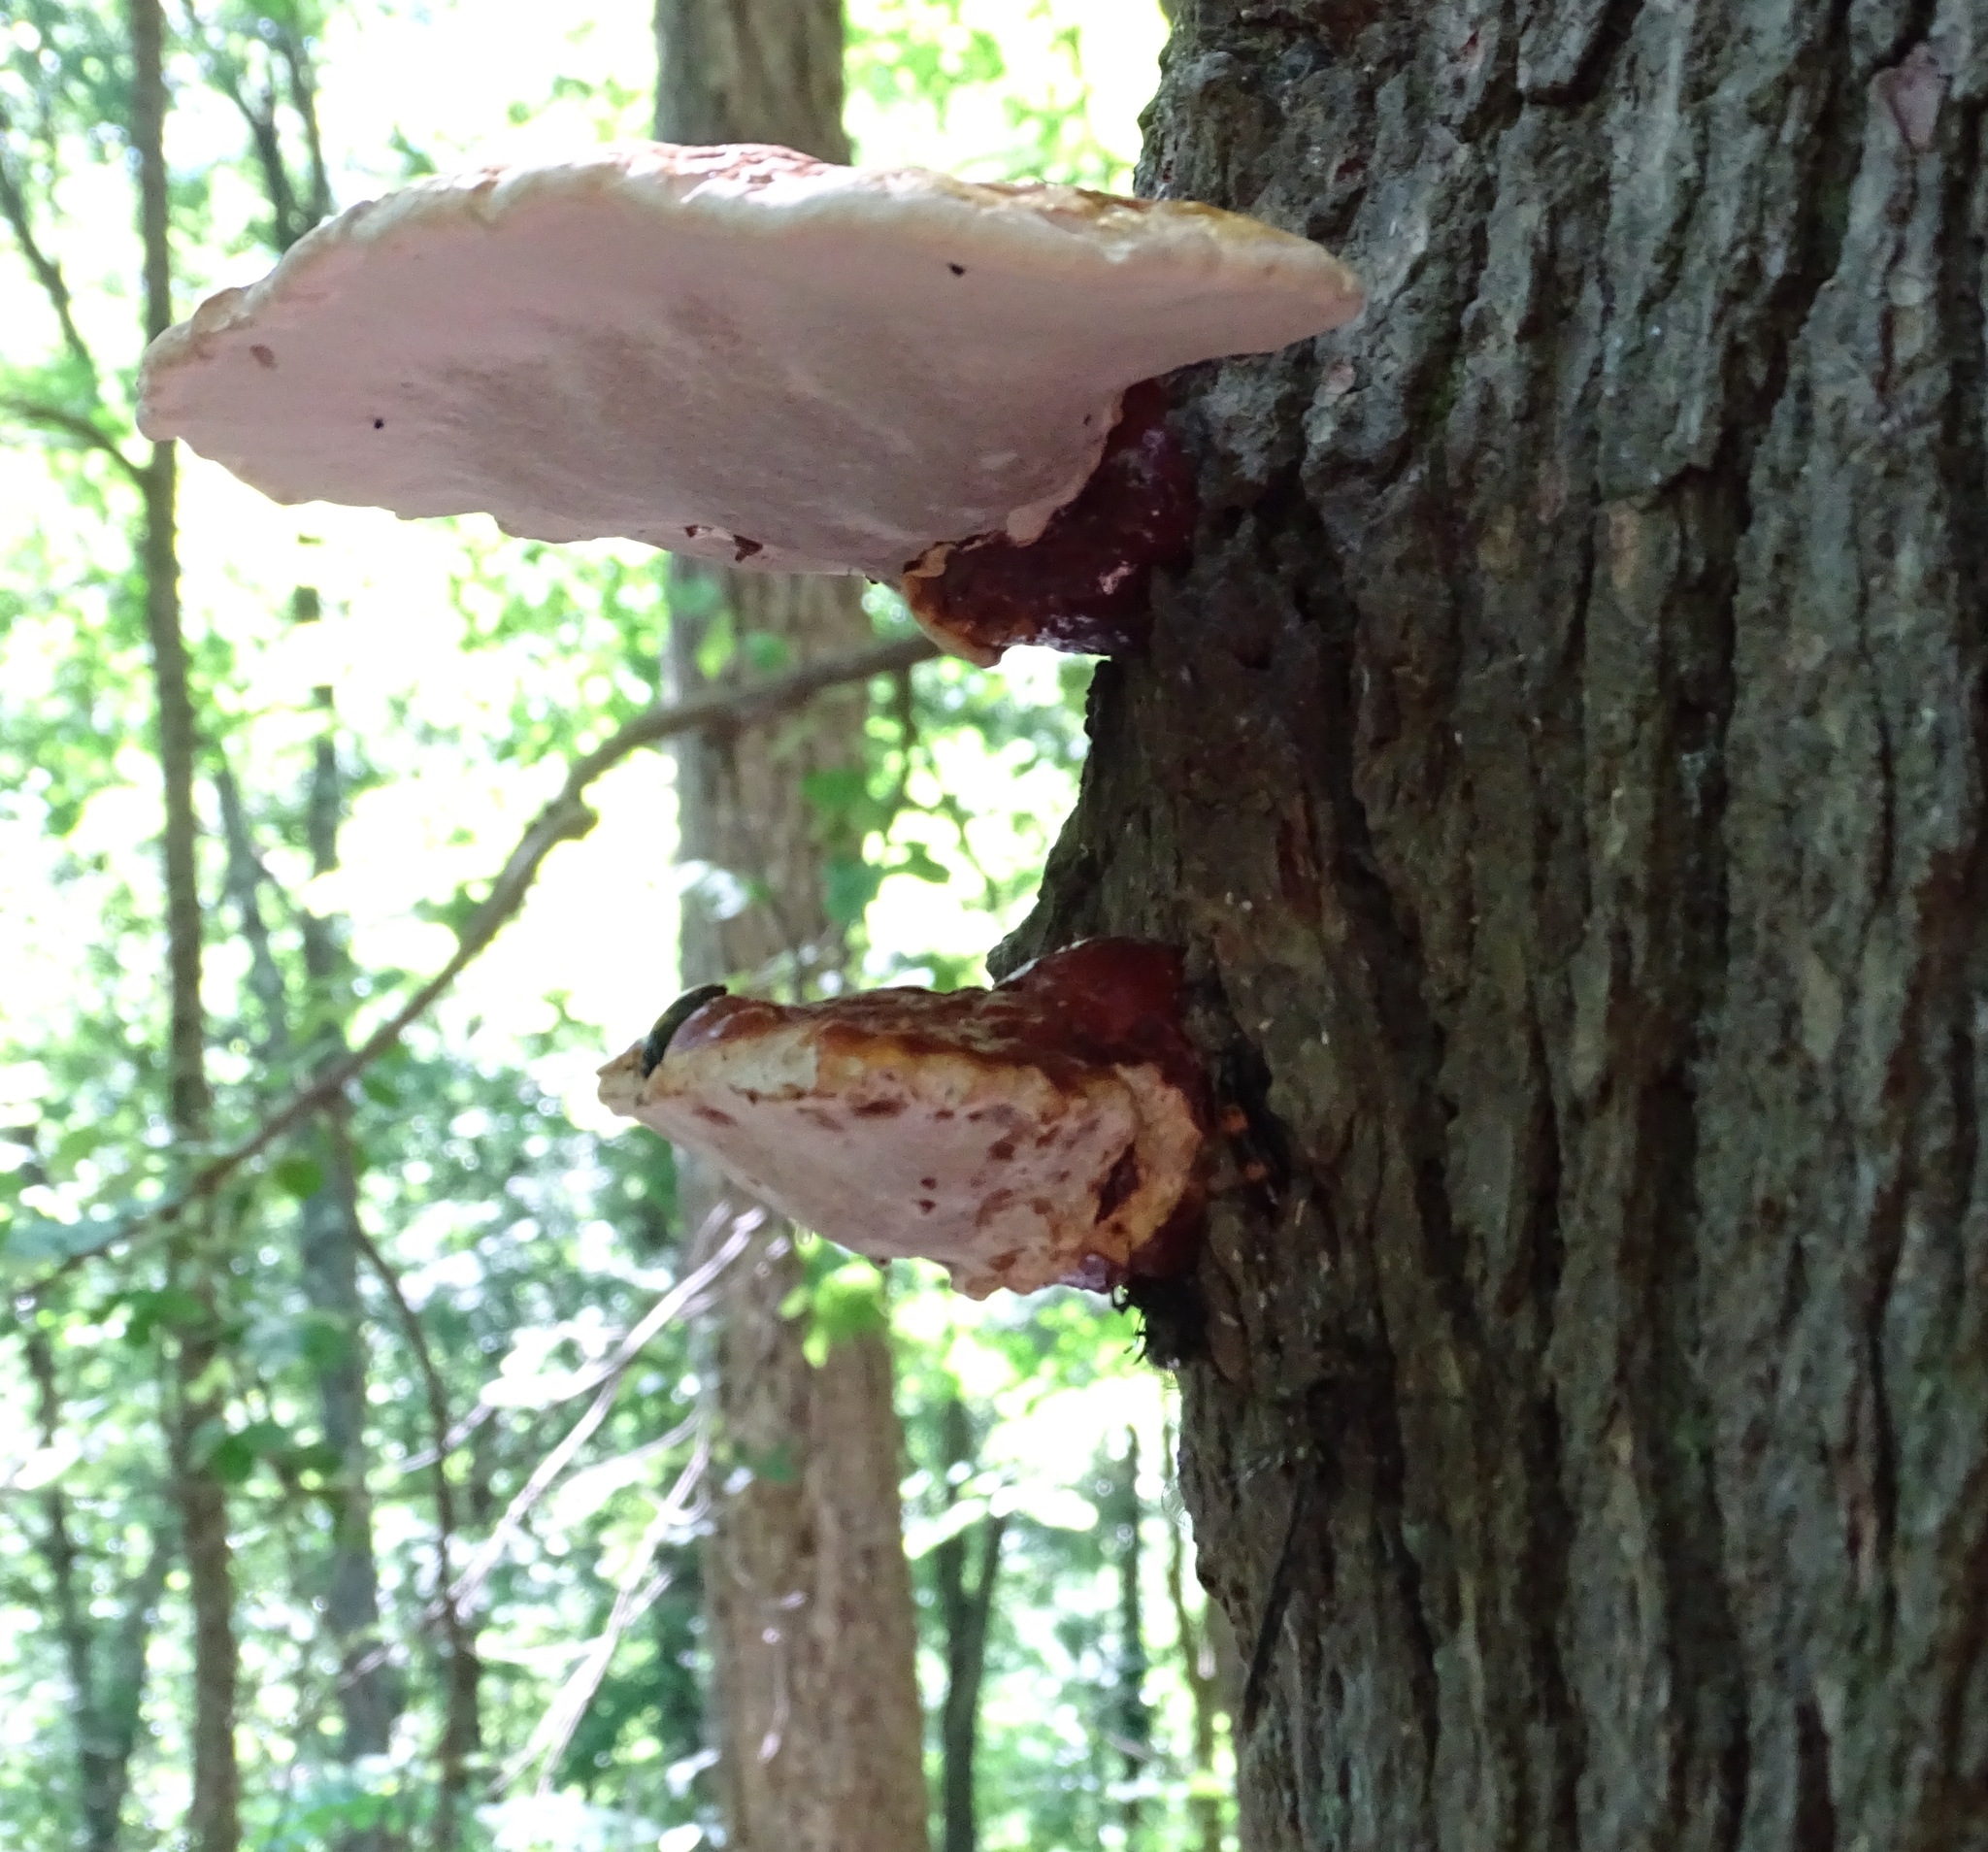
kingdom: Fungi
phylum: Basidiomycota
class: Agaricomycetes
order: Polyporales
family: Polyporaceae
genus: Ganoderma
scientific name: Ganoderma tsugae
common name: Hemlock varnish shelf
